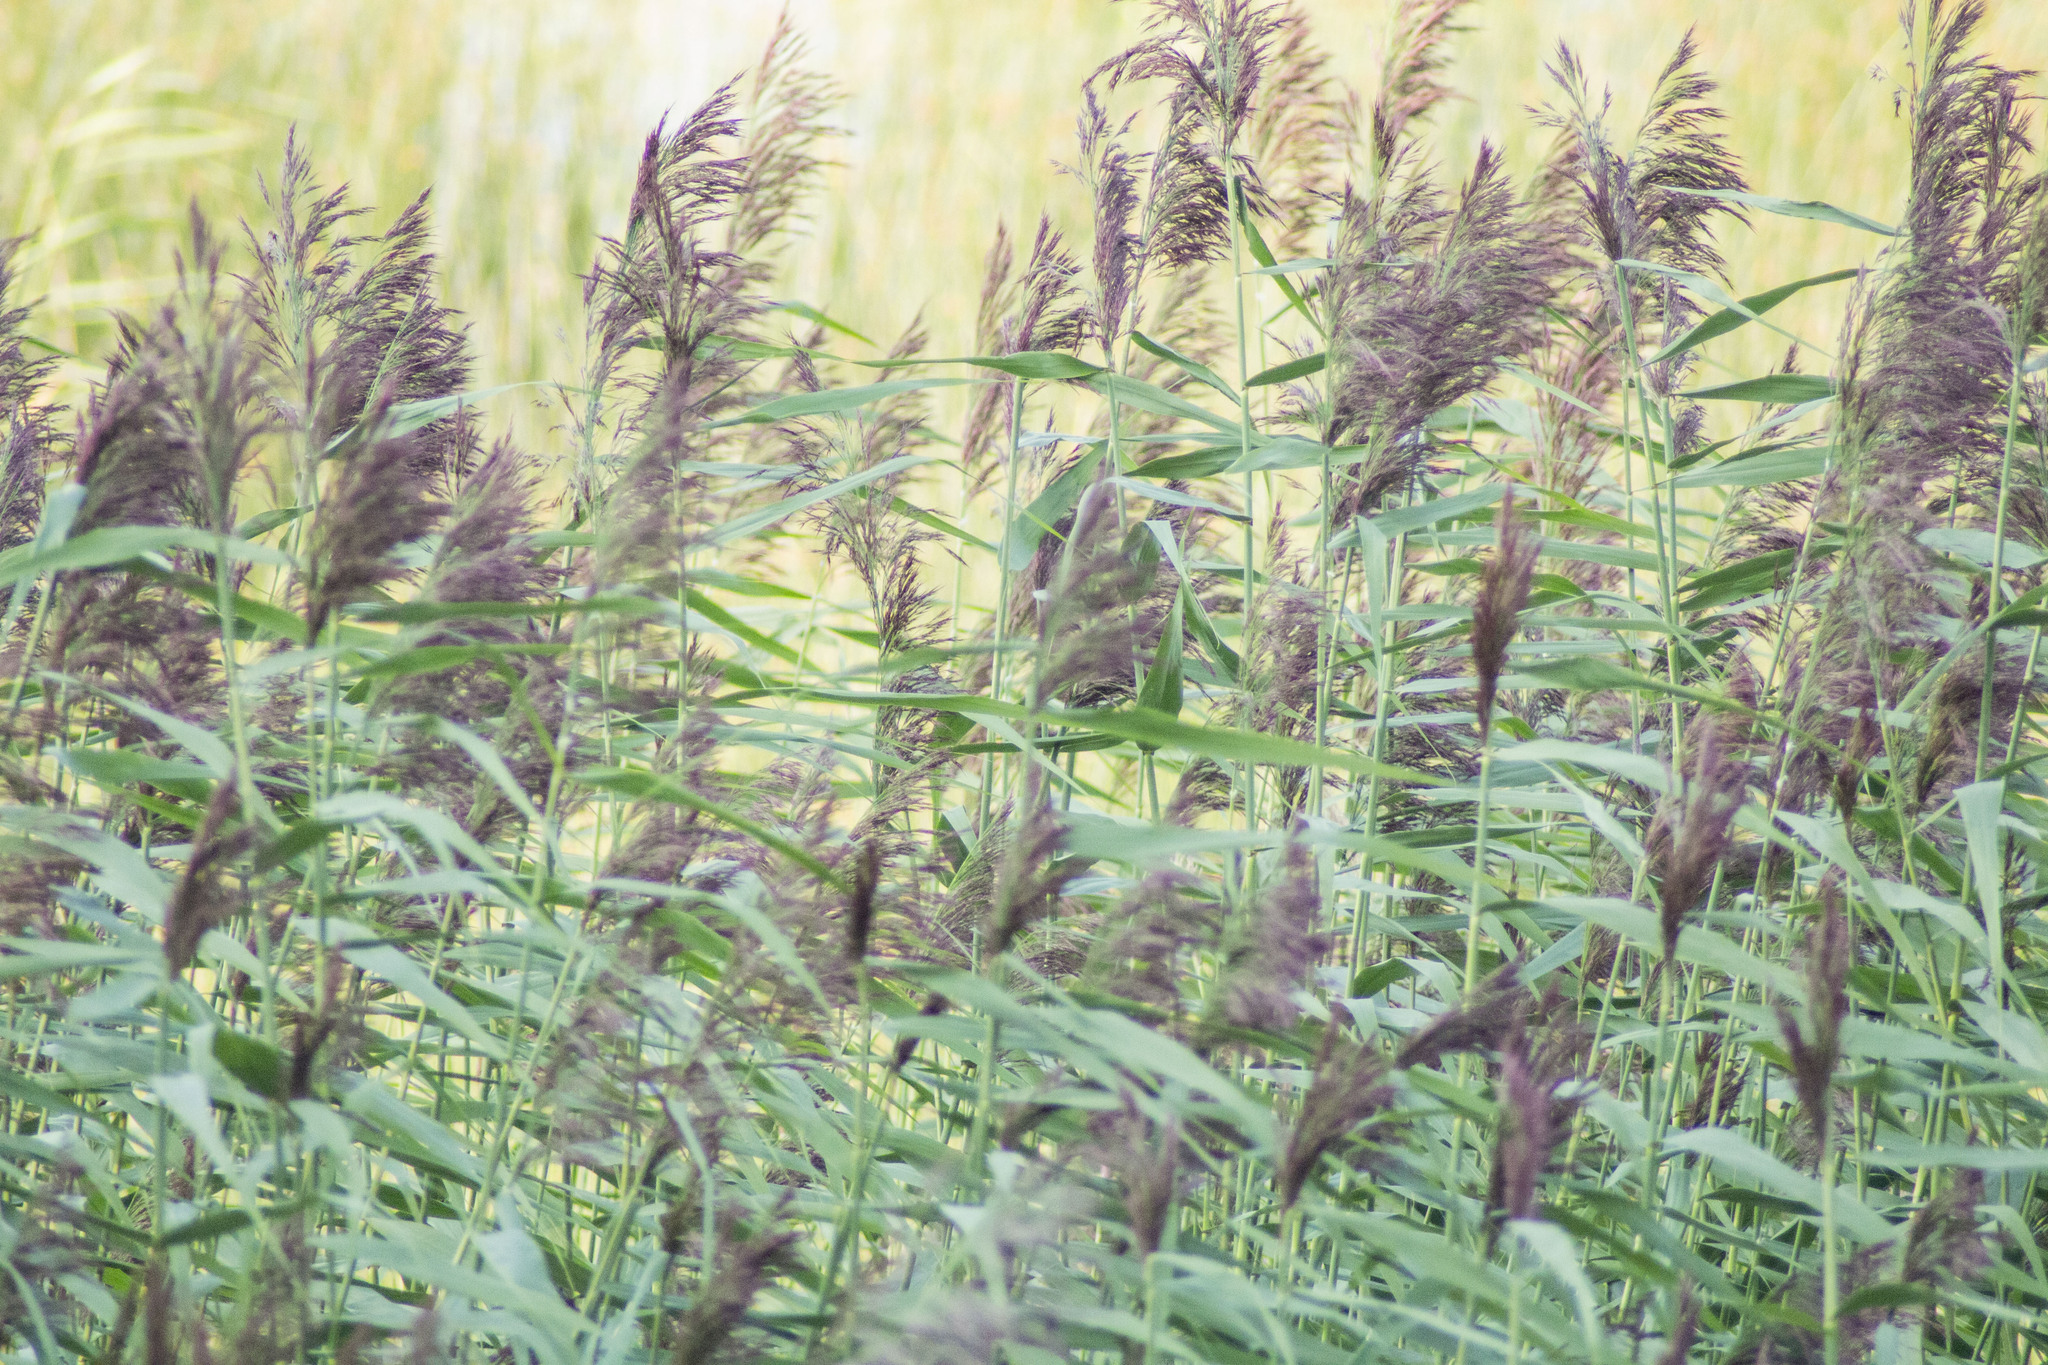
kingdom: Plantae
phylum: Tracheophyta
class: Liliopsida
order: Poales
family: Poaceae
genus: Phragmites
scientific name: Phragmites australis
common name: Common reed
